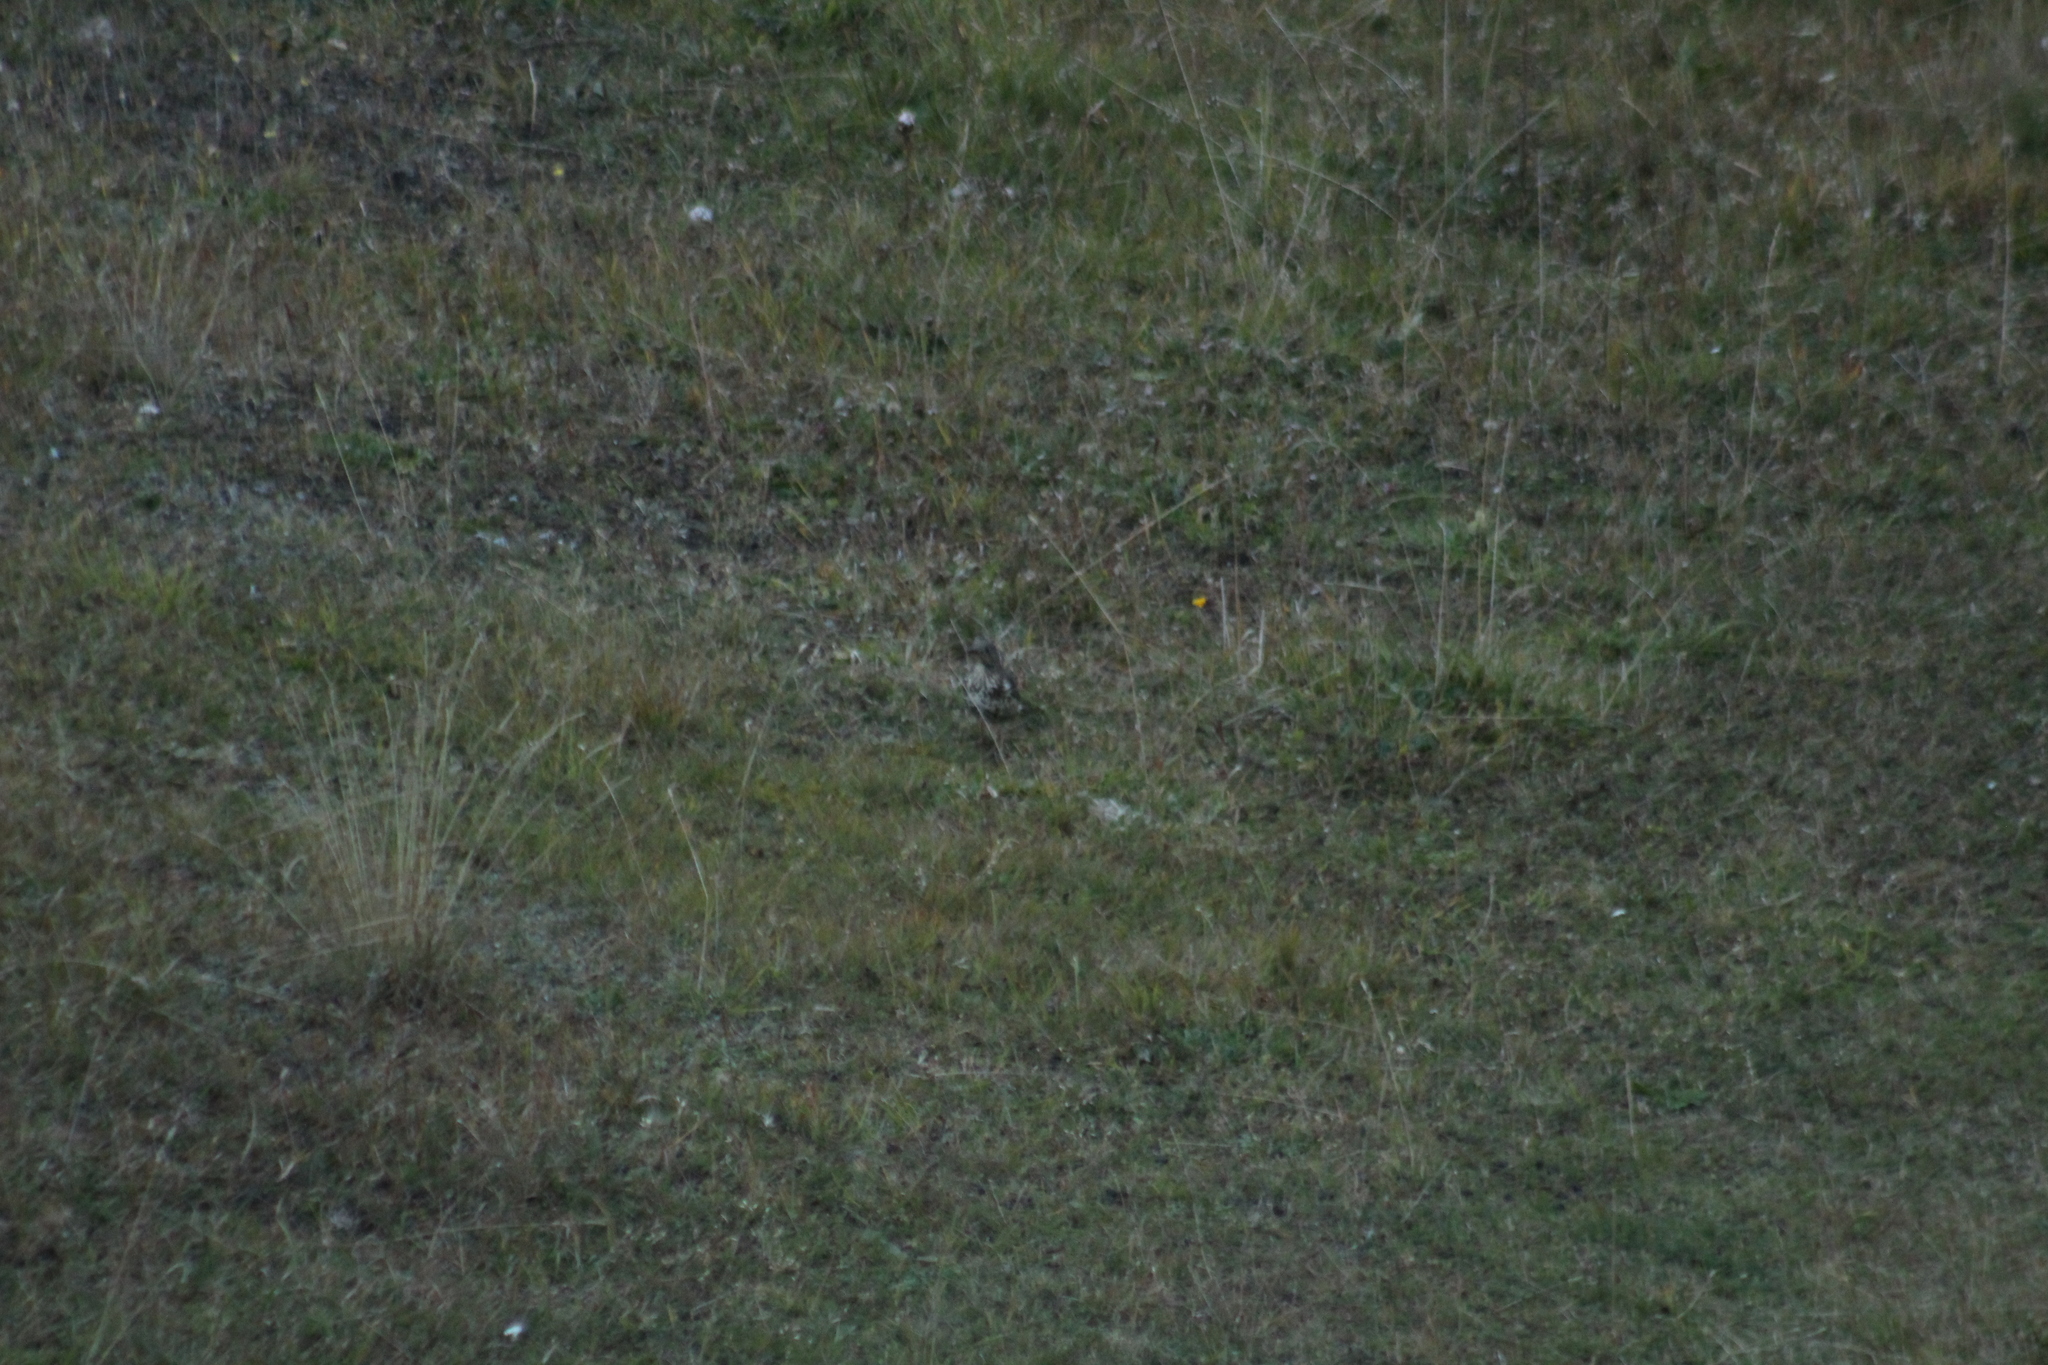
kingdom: Animalia
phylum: Chordata
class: Aves
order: Passeriformes
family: Turdidae
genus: Turdus
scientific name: Turdus viscivorus
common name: Mistle thrush
